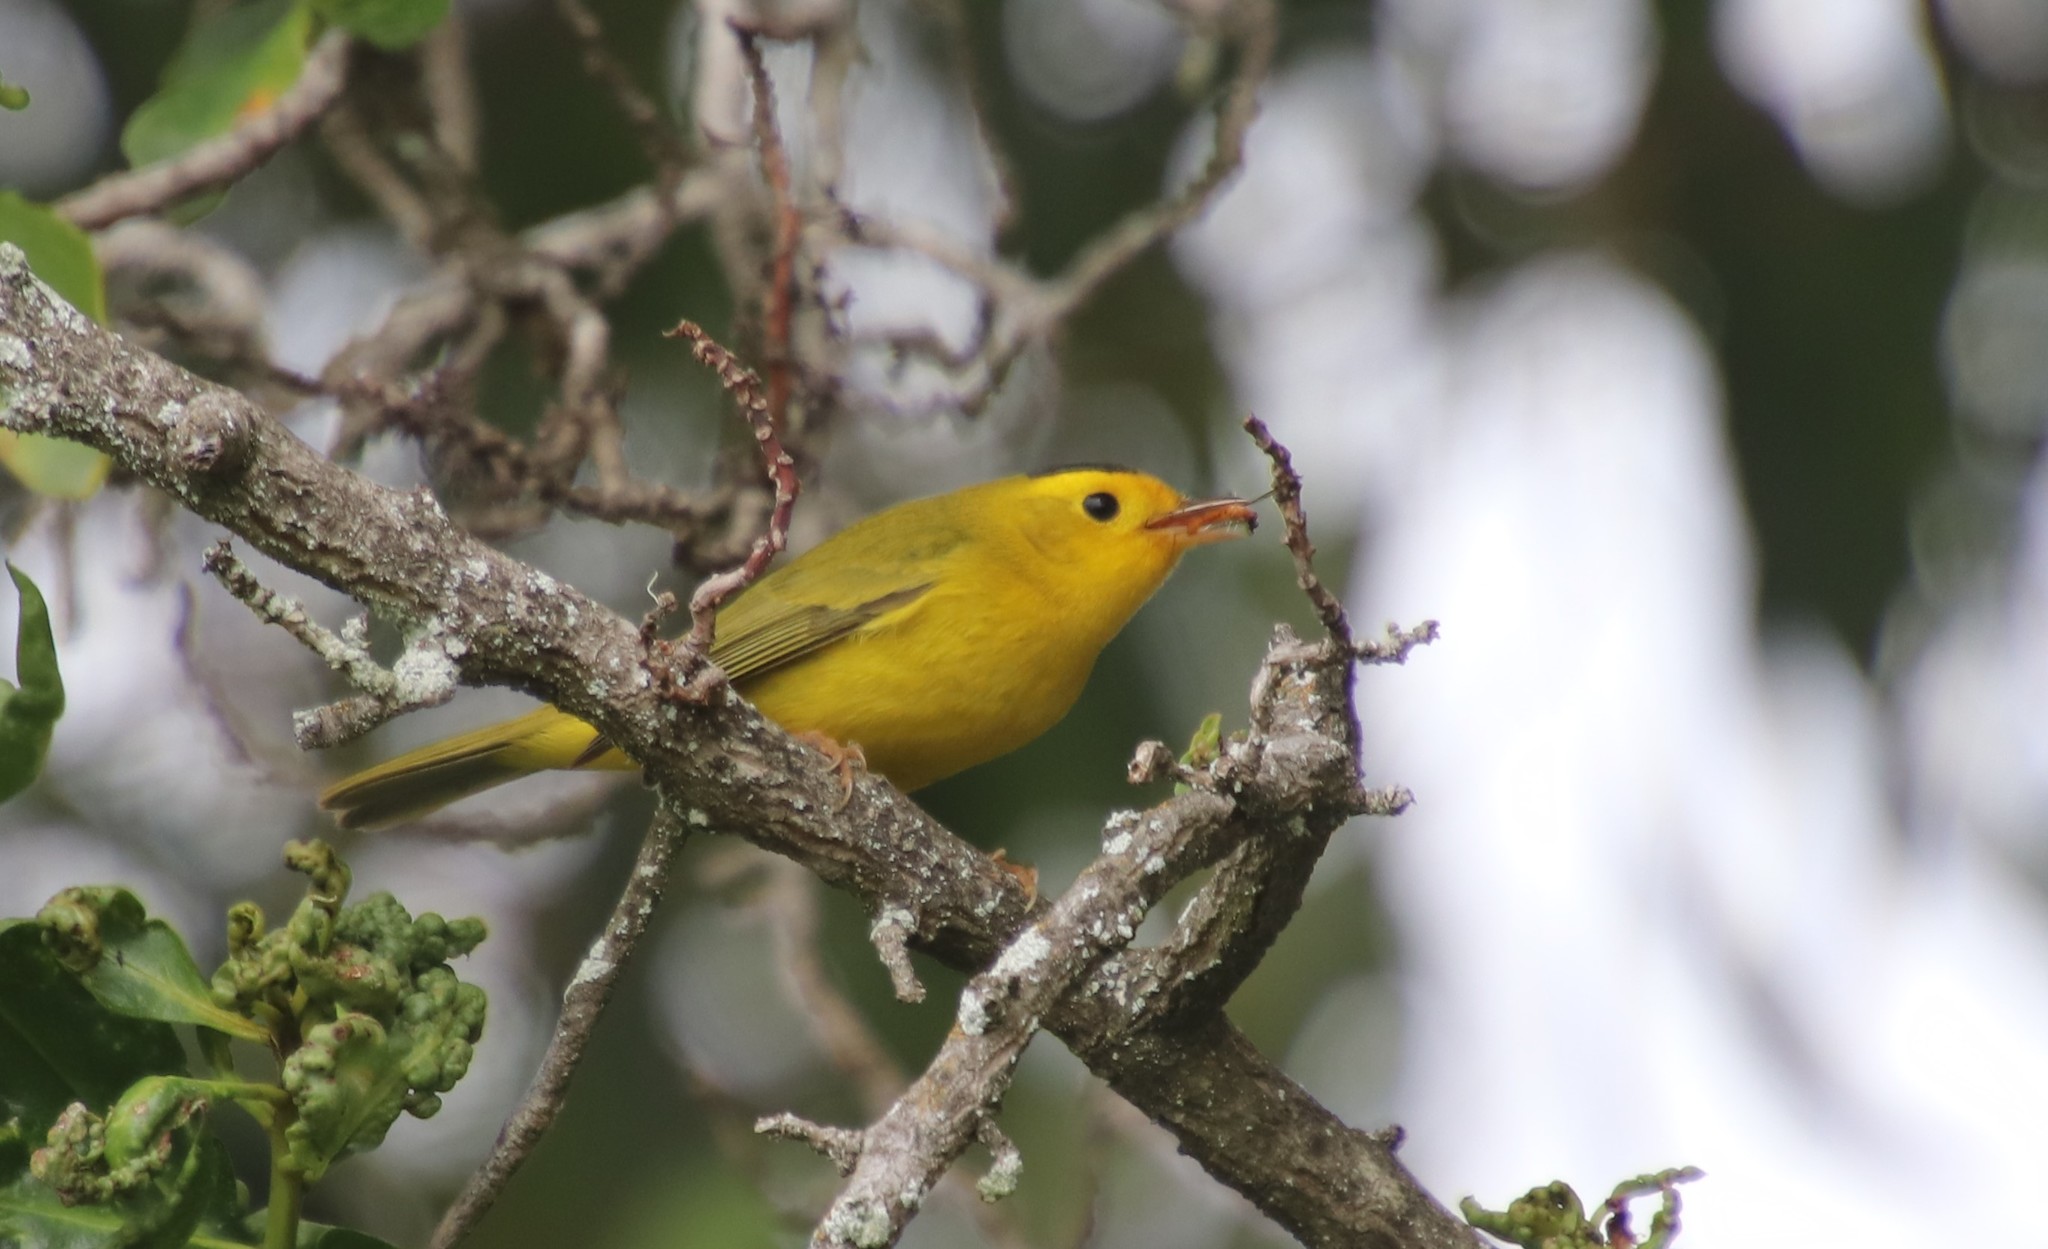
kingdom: Animalia
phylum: Chordata
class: Aves
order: Passeriformes
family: Parulidae
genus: Cardellina
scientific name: Cardellina pusilla
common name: Wilson's warbler
